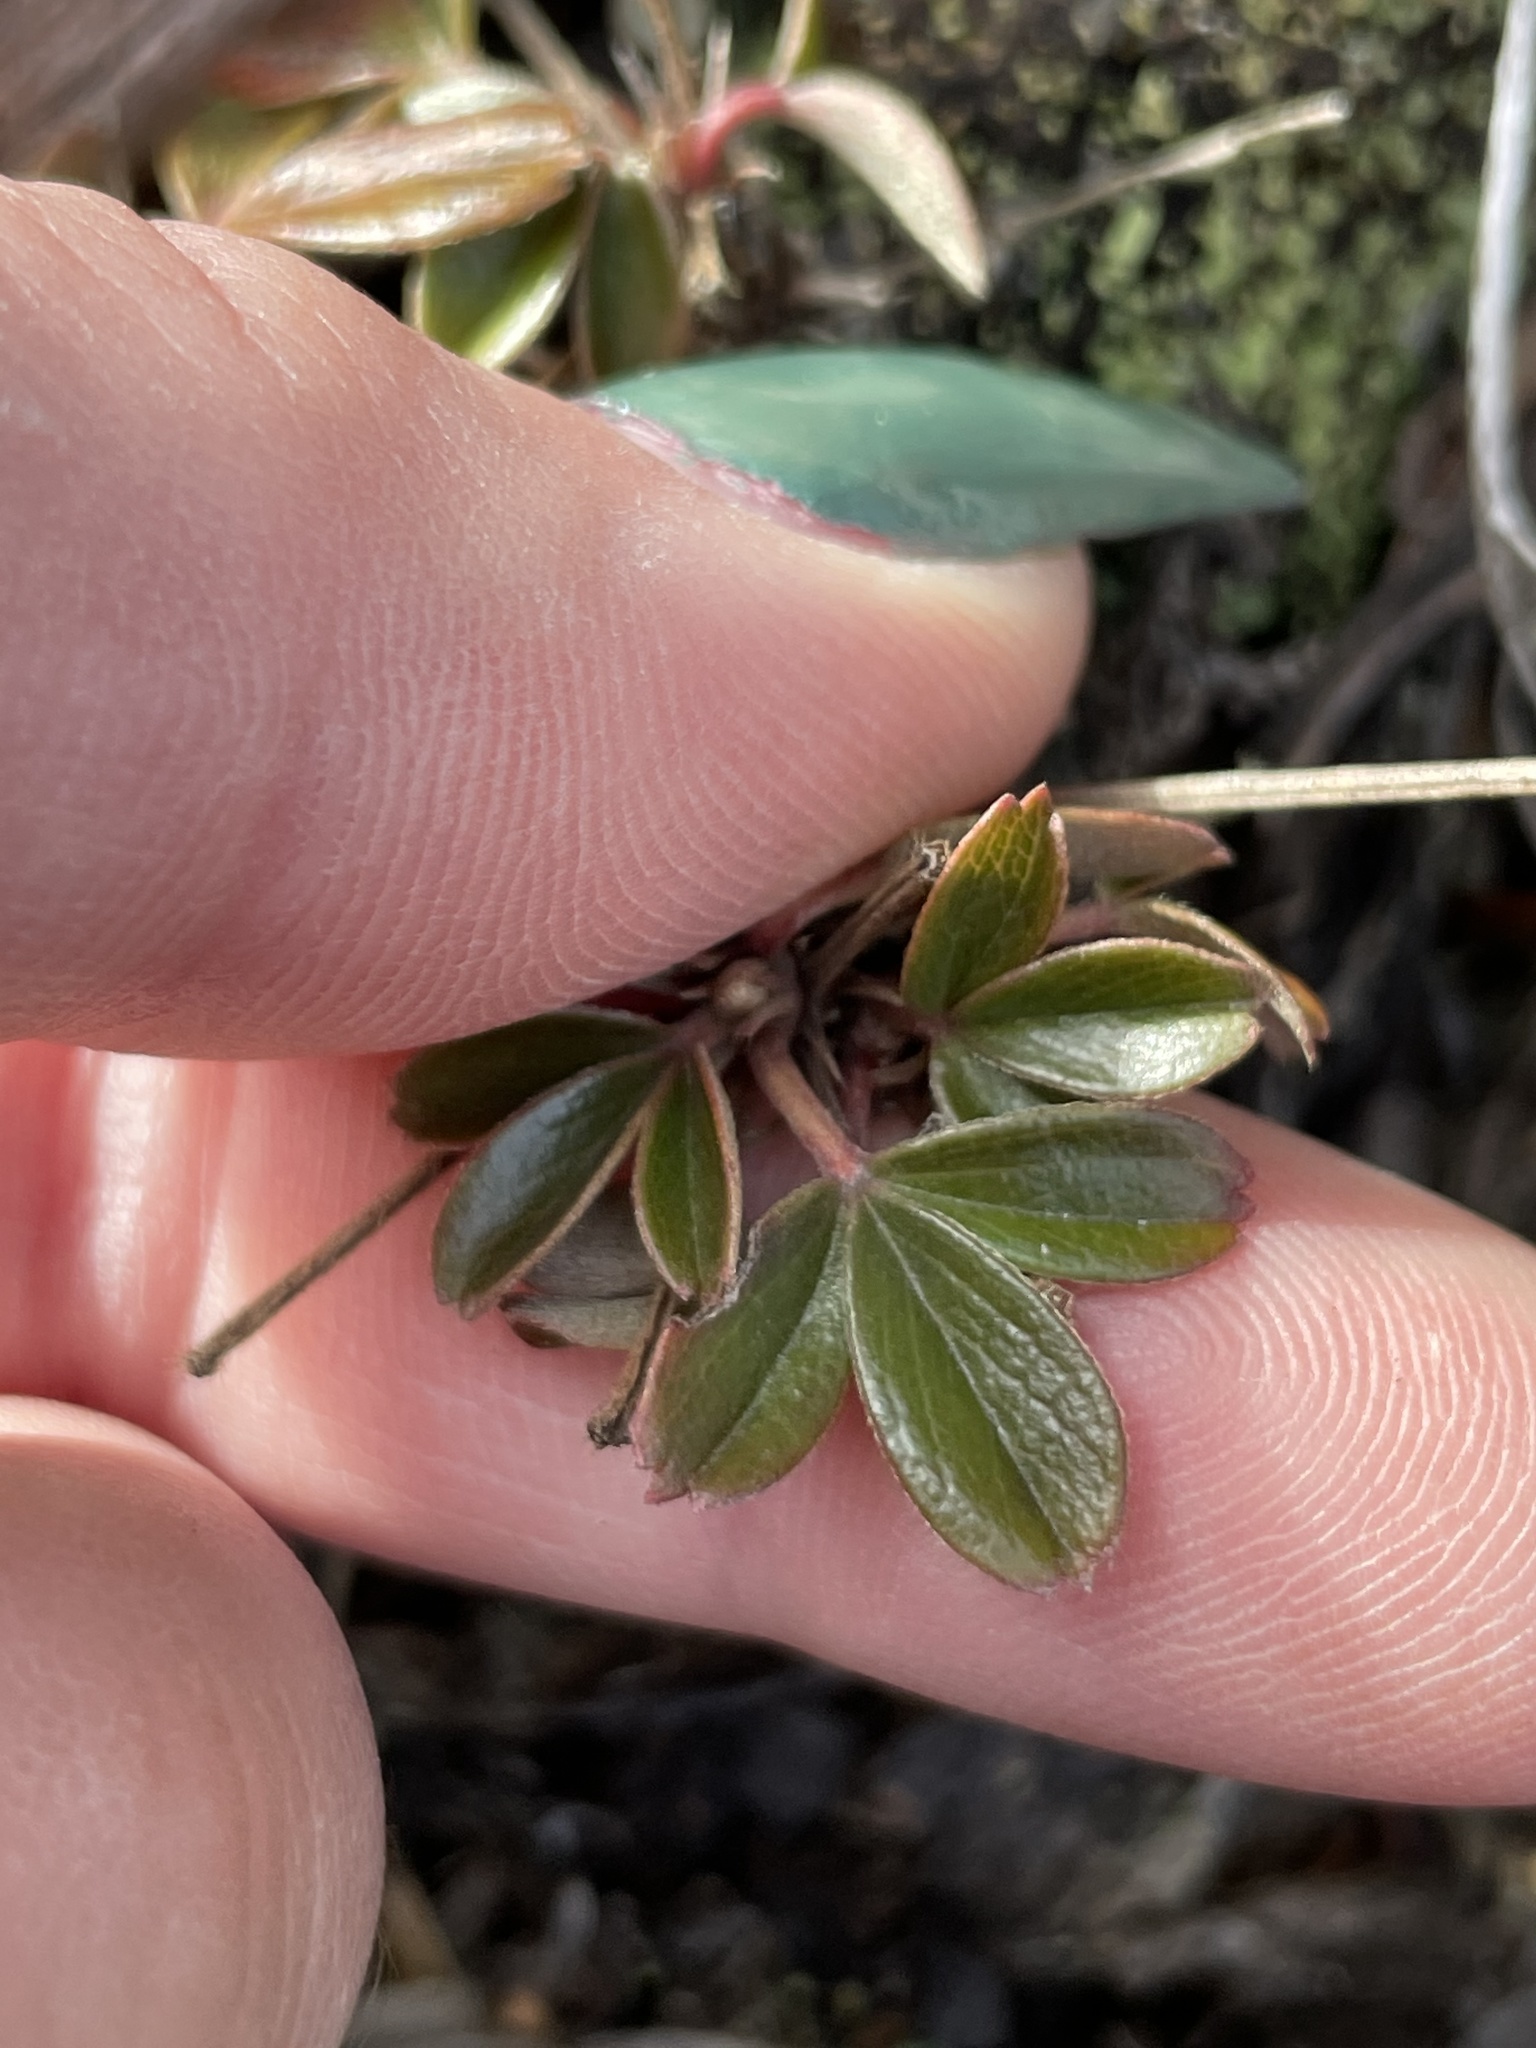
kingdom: Plantae
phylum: Tracheophyta
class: Magnoliopsida
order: Rosales
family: Rosaceae
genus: Sibbaldia
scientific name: Sibbaldia tridentata
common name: Three-toothed cinquefoil
